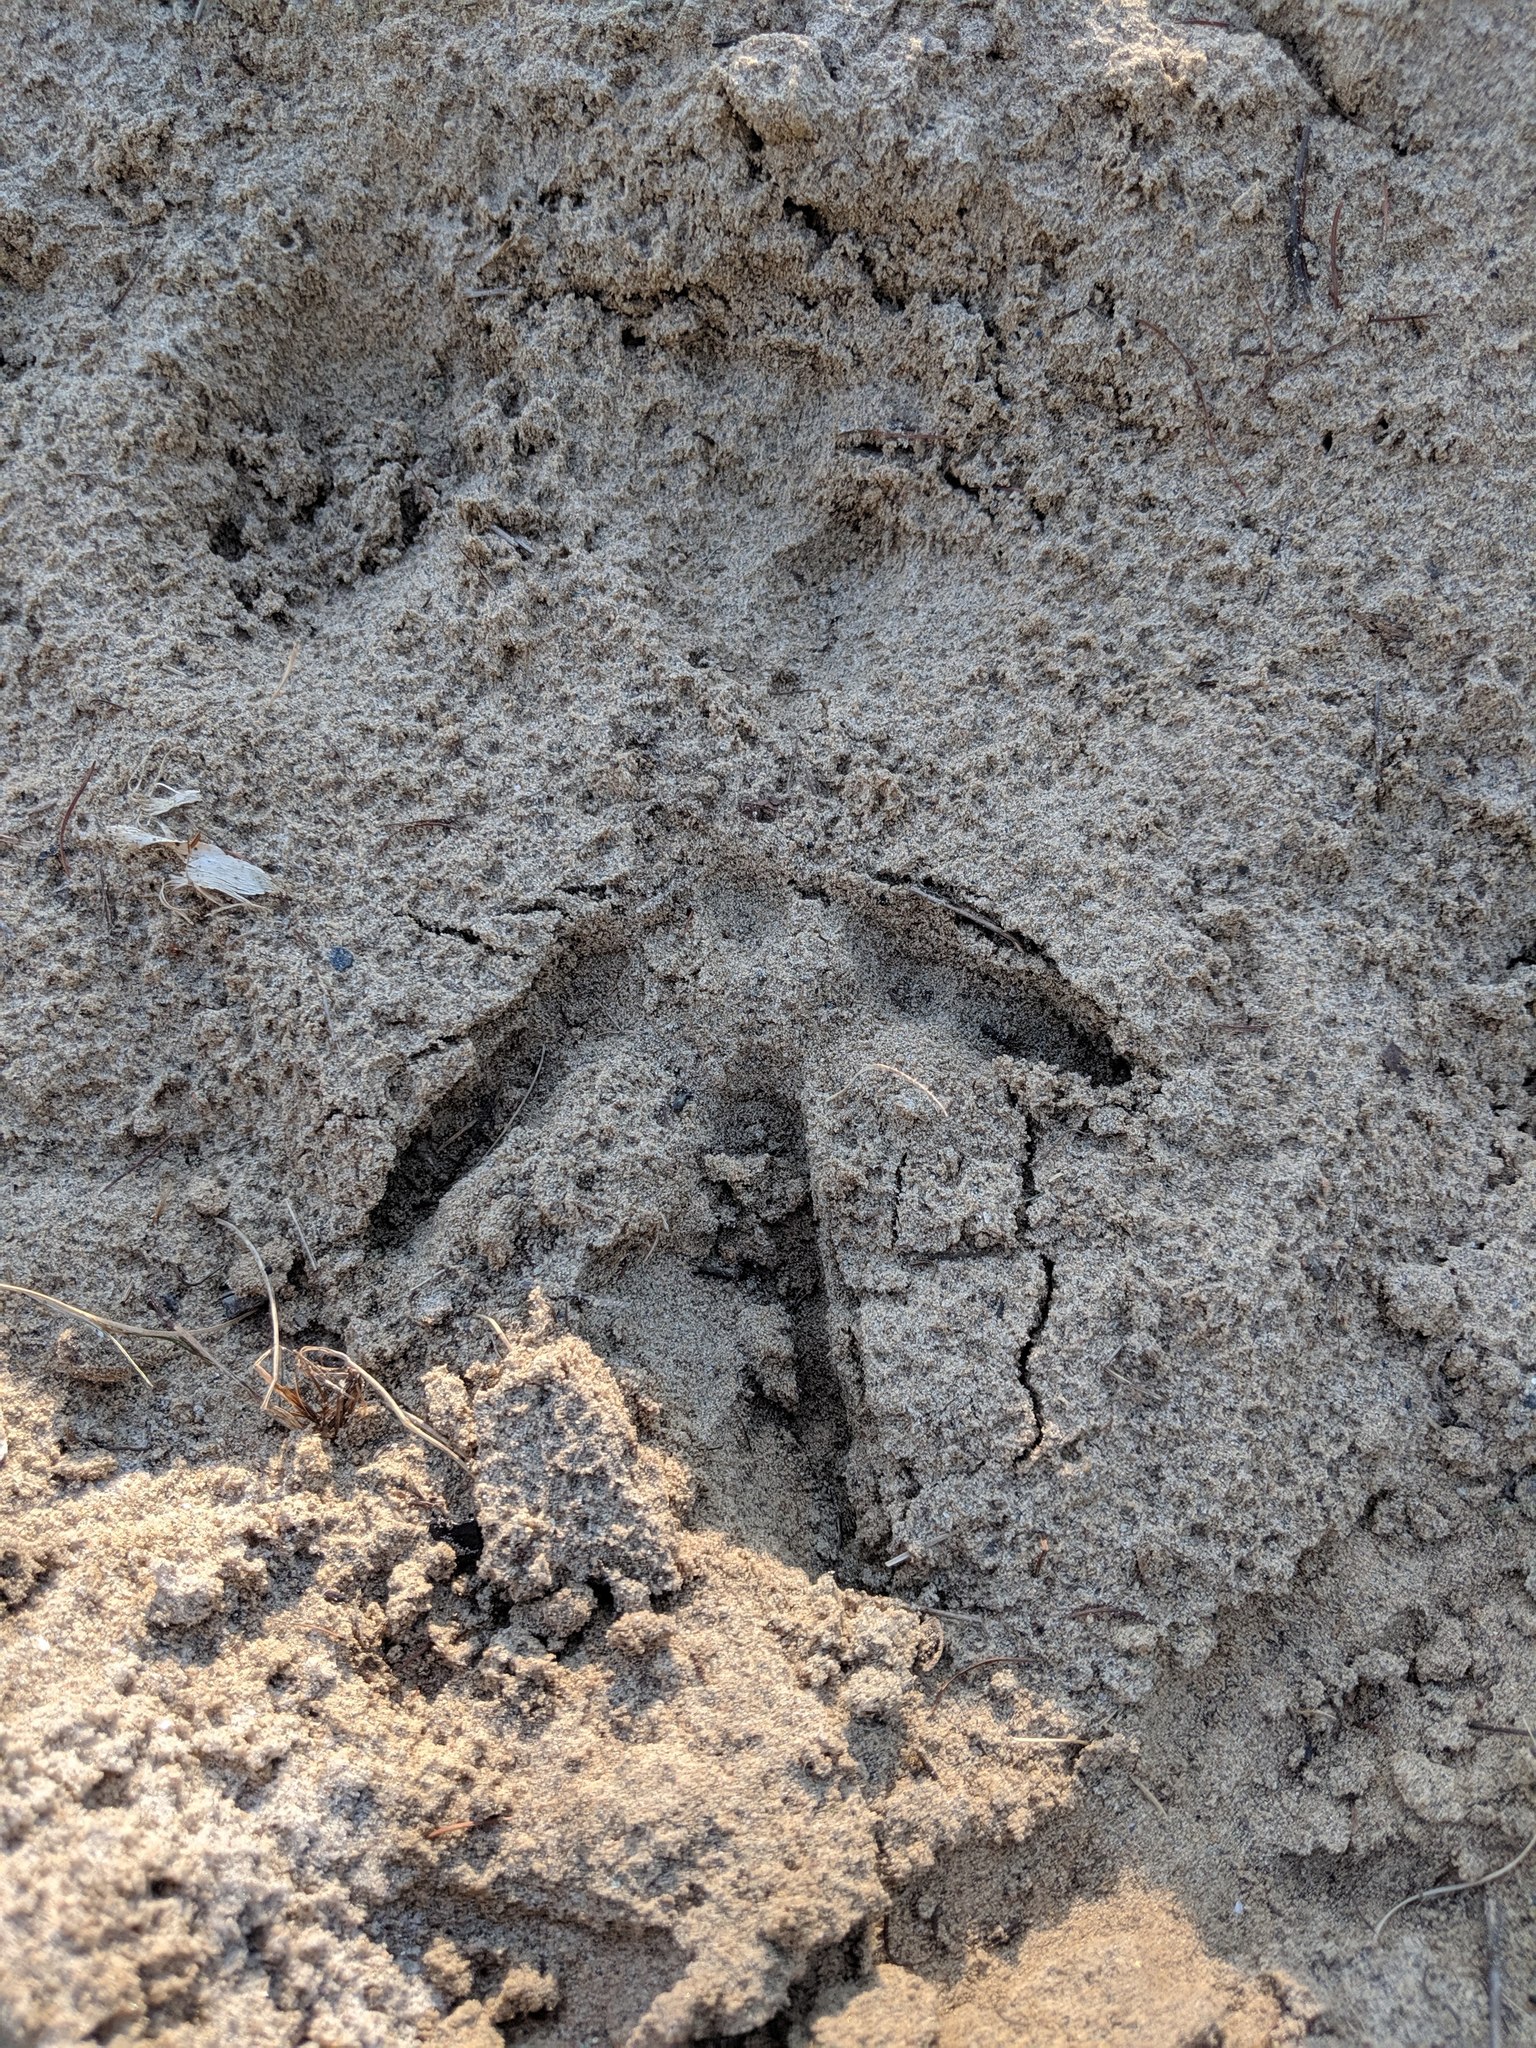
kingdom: Animalia
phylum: Chordata
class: Aves
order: Galliformes
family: Phasianidae
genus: Meleagris
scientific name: Meleagris gallopavo
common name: Wild turkey
